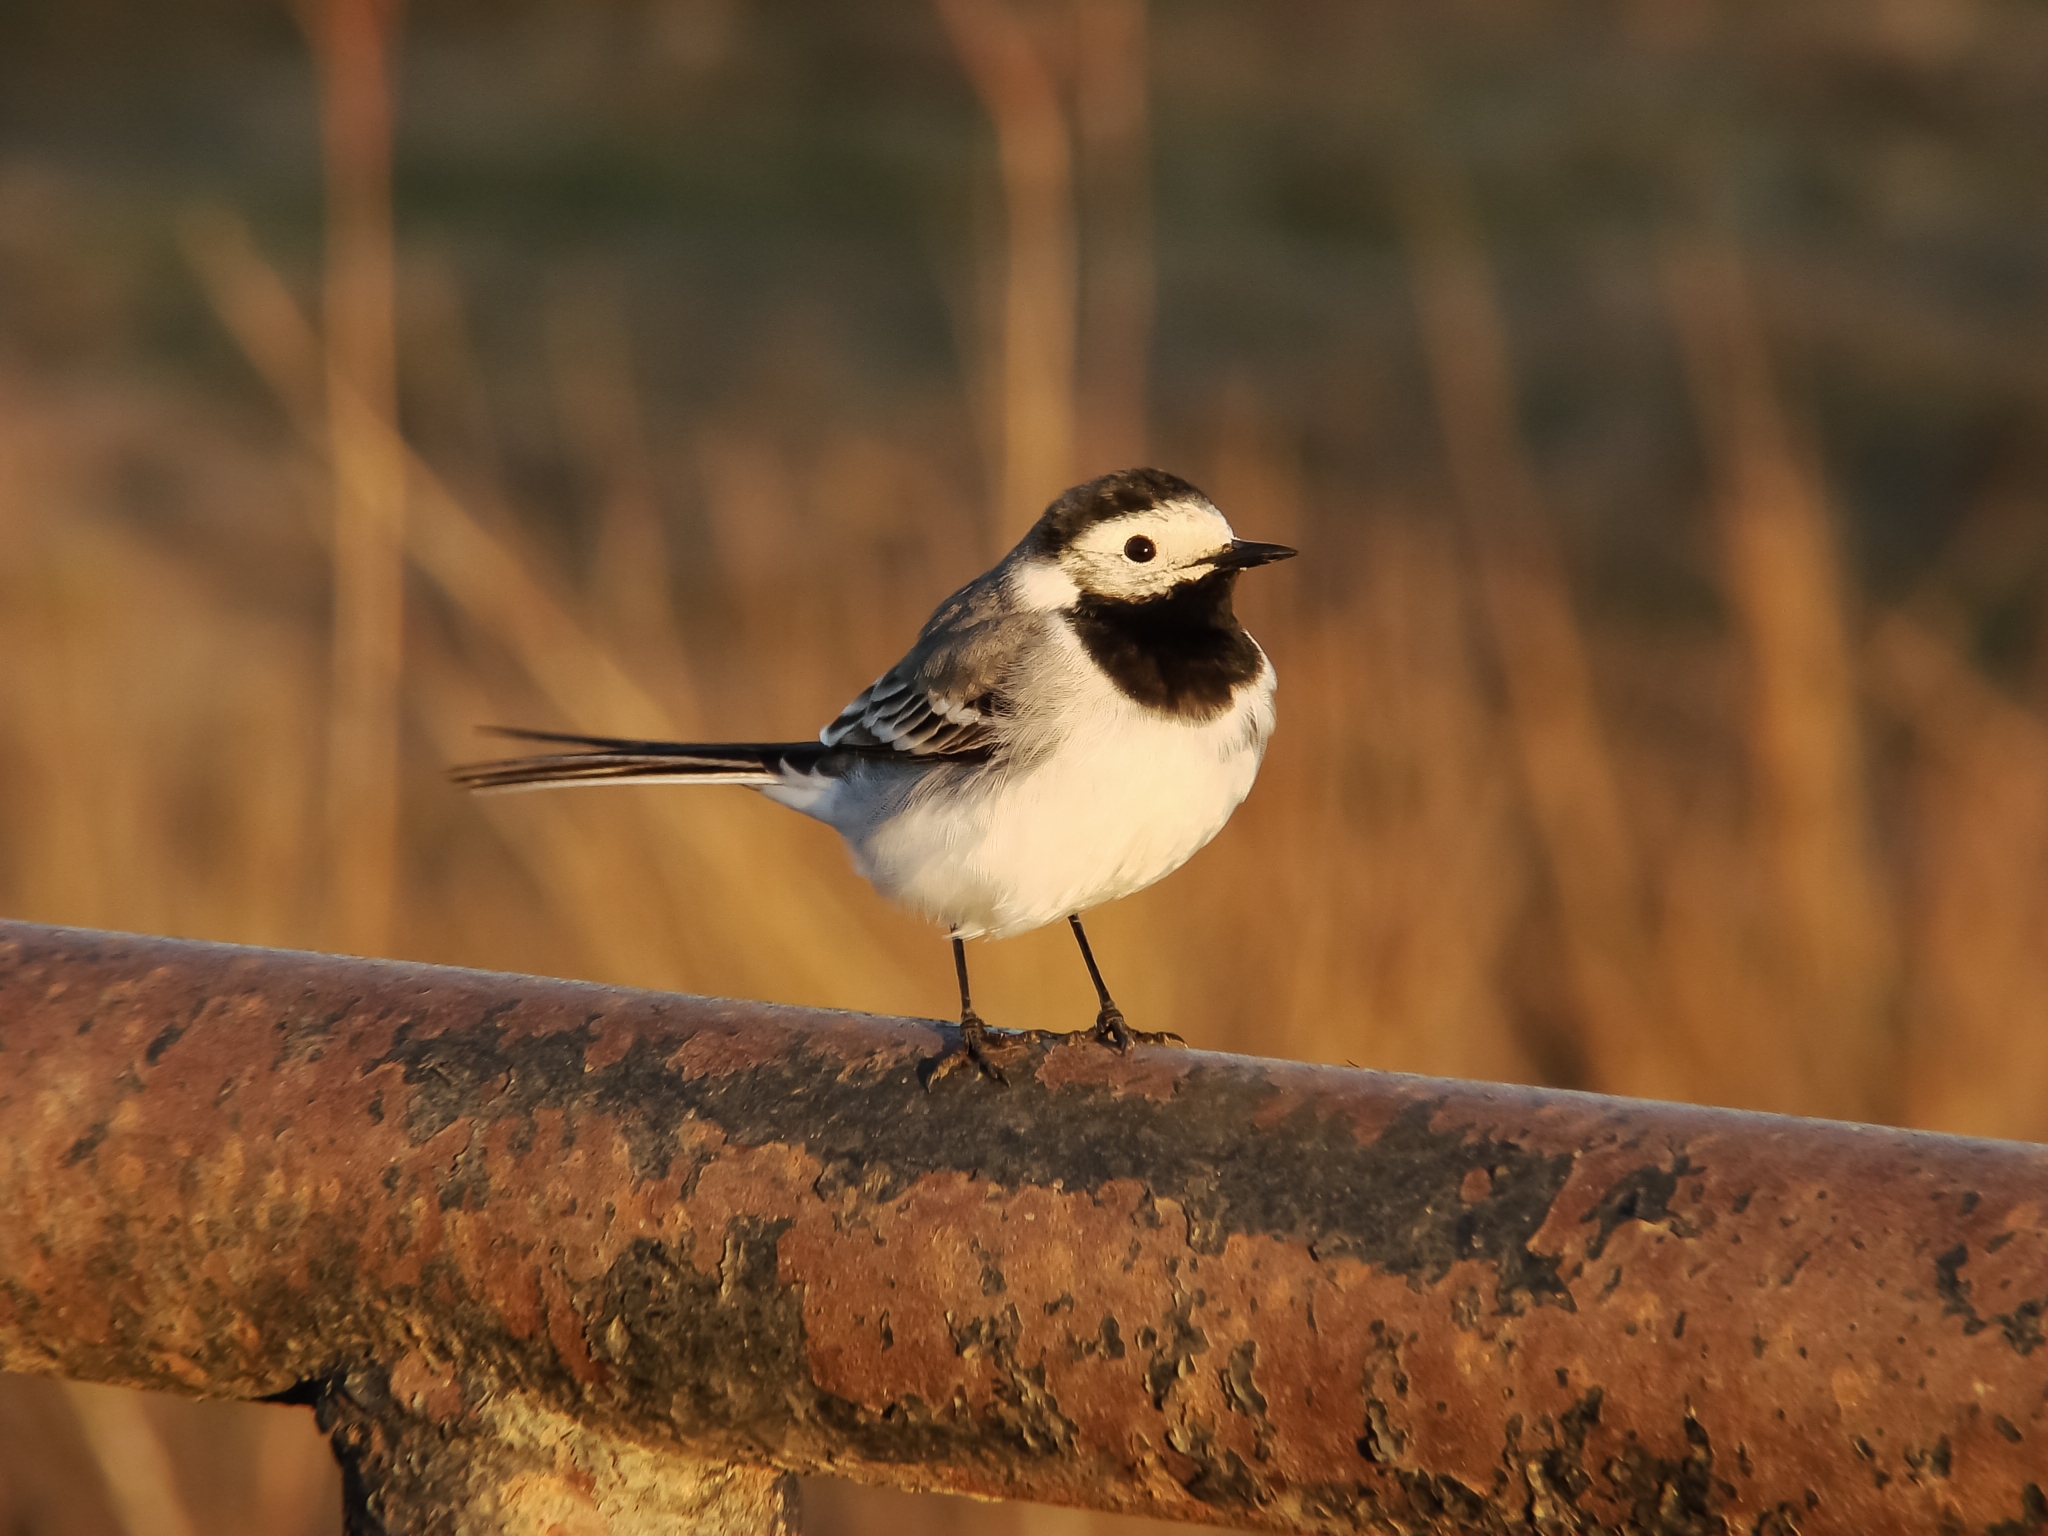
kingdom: Animalia
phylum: Chordata
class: Aves
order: Passeriformes
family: Motacillidae
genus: Motacilla
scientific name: Motacilla alba
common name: White wagtail
